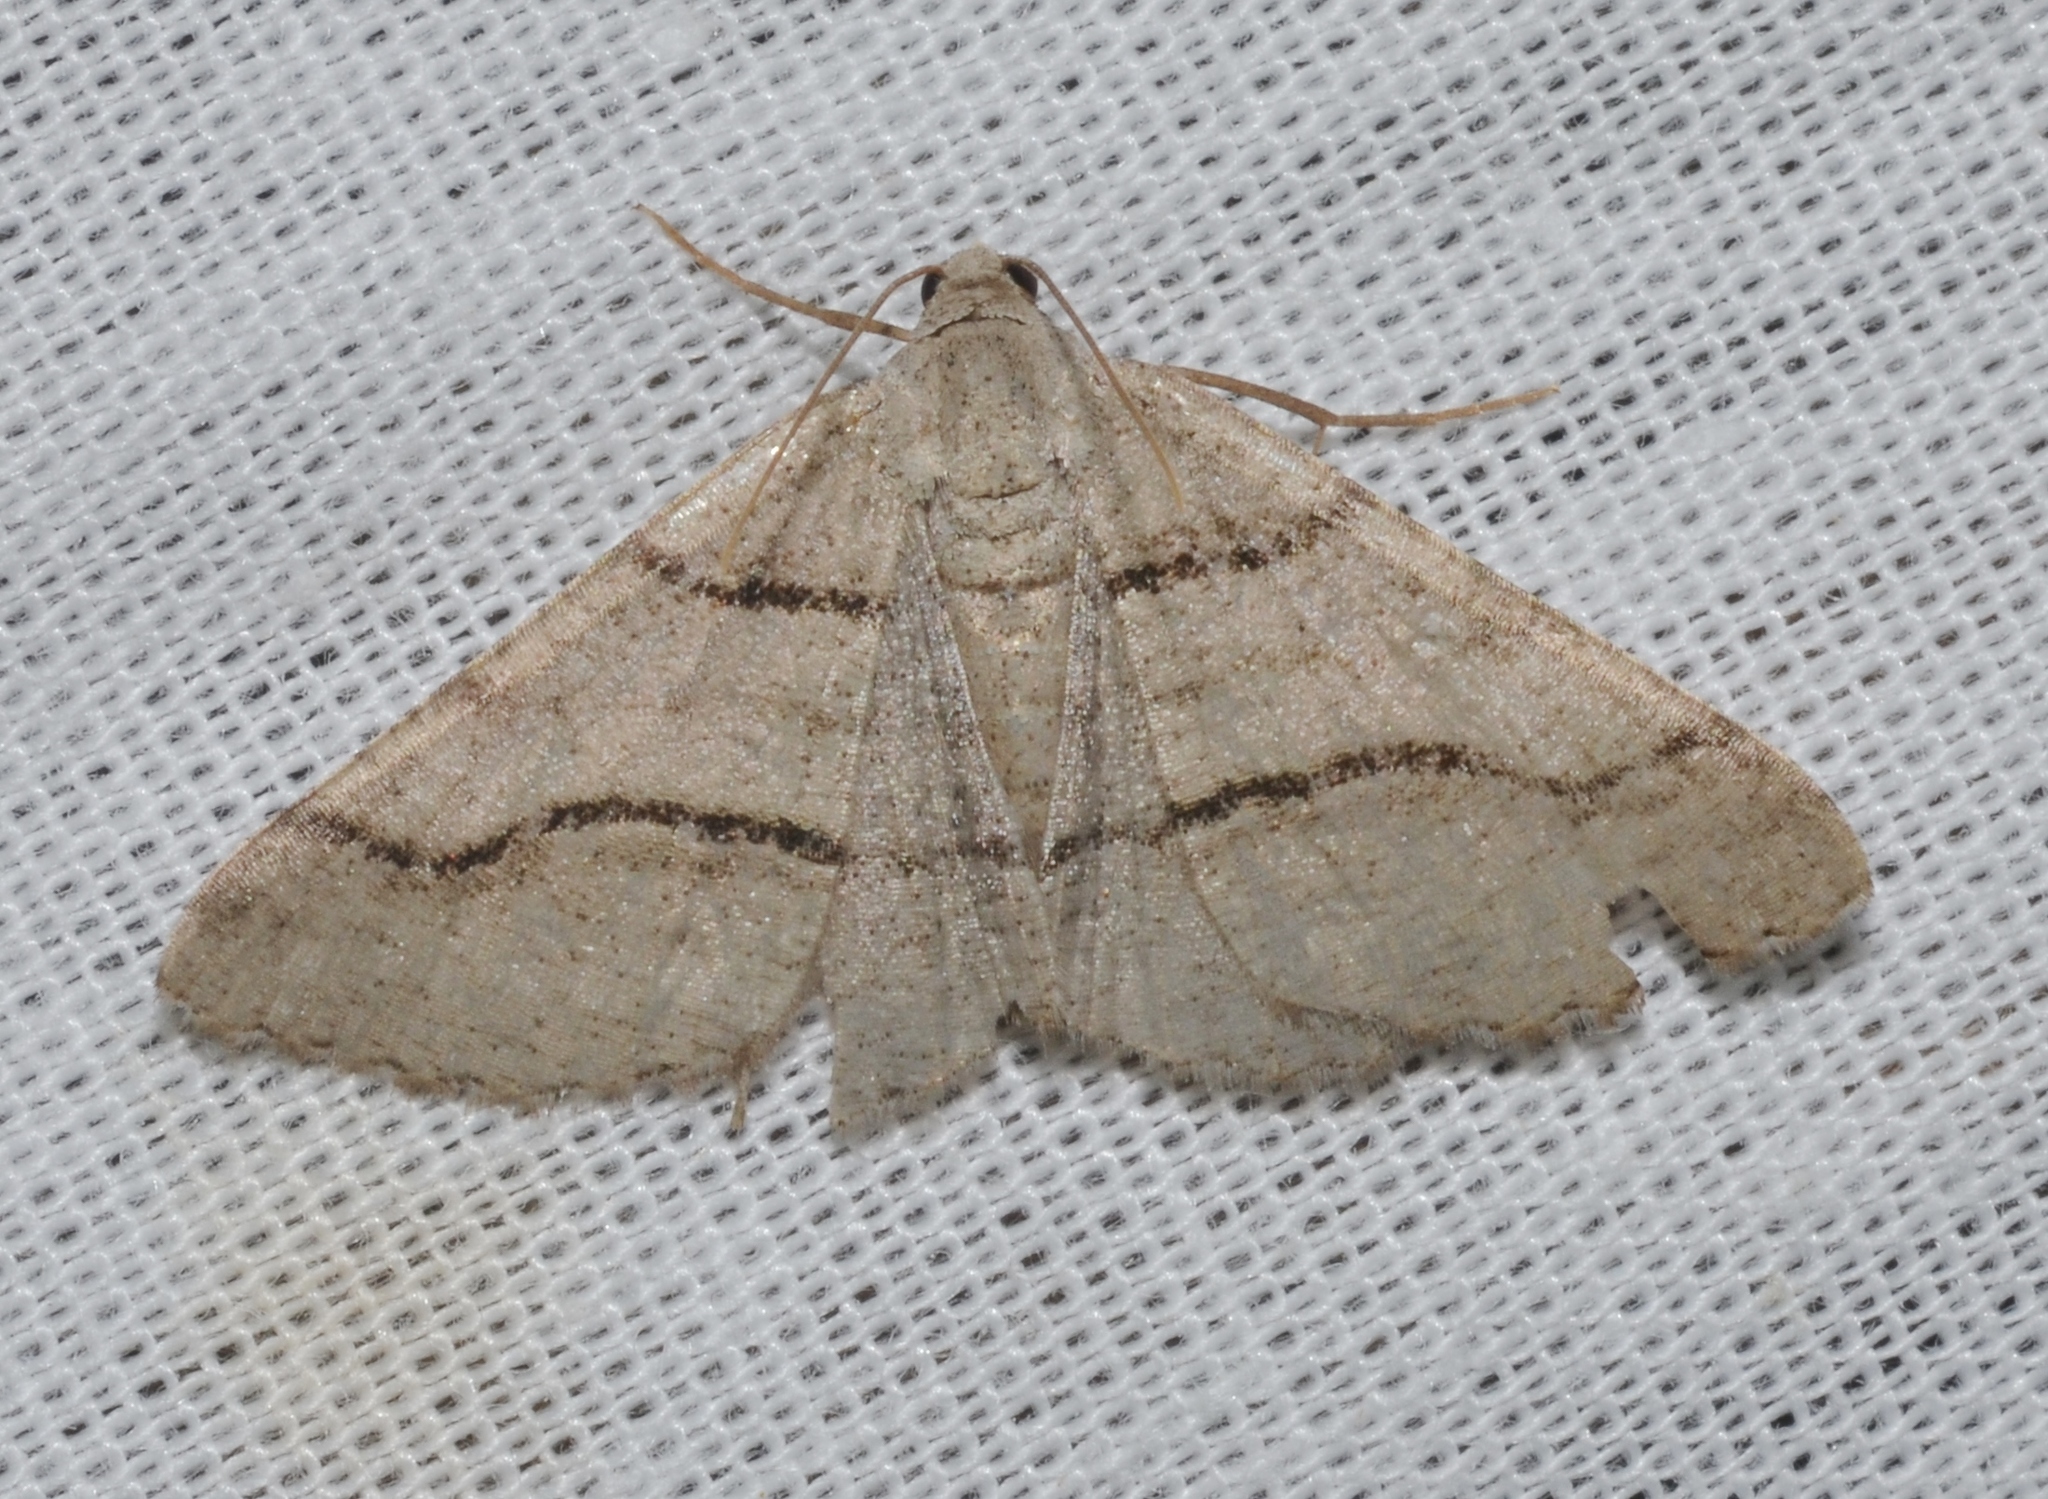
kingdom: Animalia
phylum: Arthropoda
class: Insecta
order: Lepidoptera
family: Geometridae
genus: Digrammia
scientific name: Digrammia continuata
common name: Curve-lined angle
